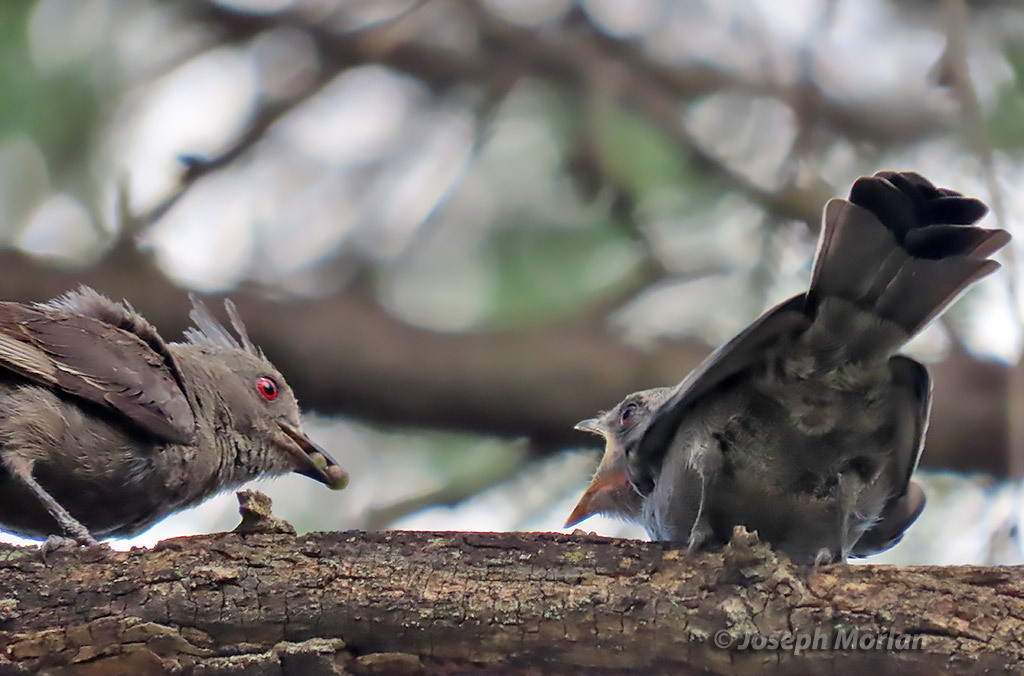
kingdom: Animalia
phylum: Chordata
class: Aves
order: Passeriformes
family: Ptilogonatidae
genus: Phainopepla
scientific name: Phainopepla nitens
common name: Phainopepla
